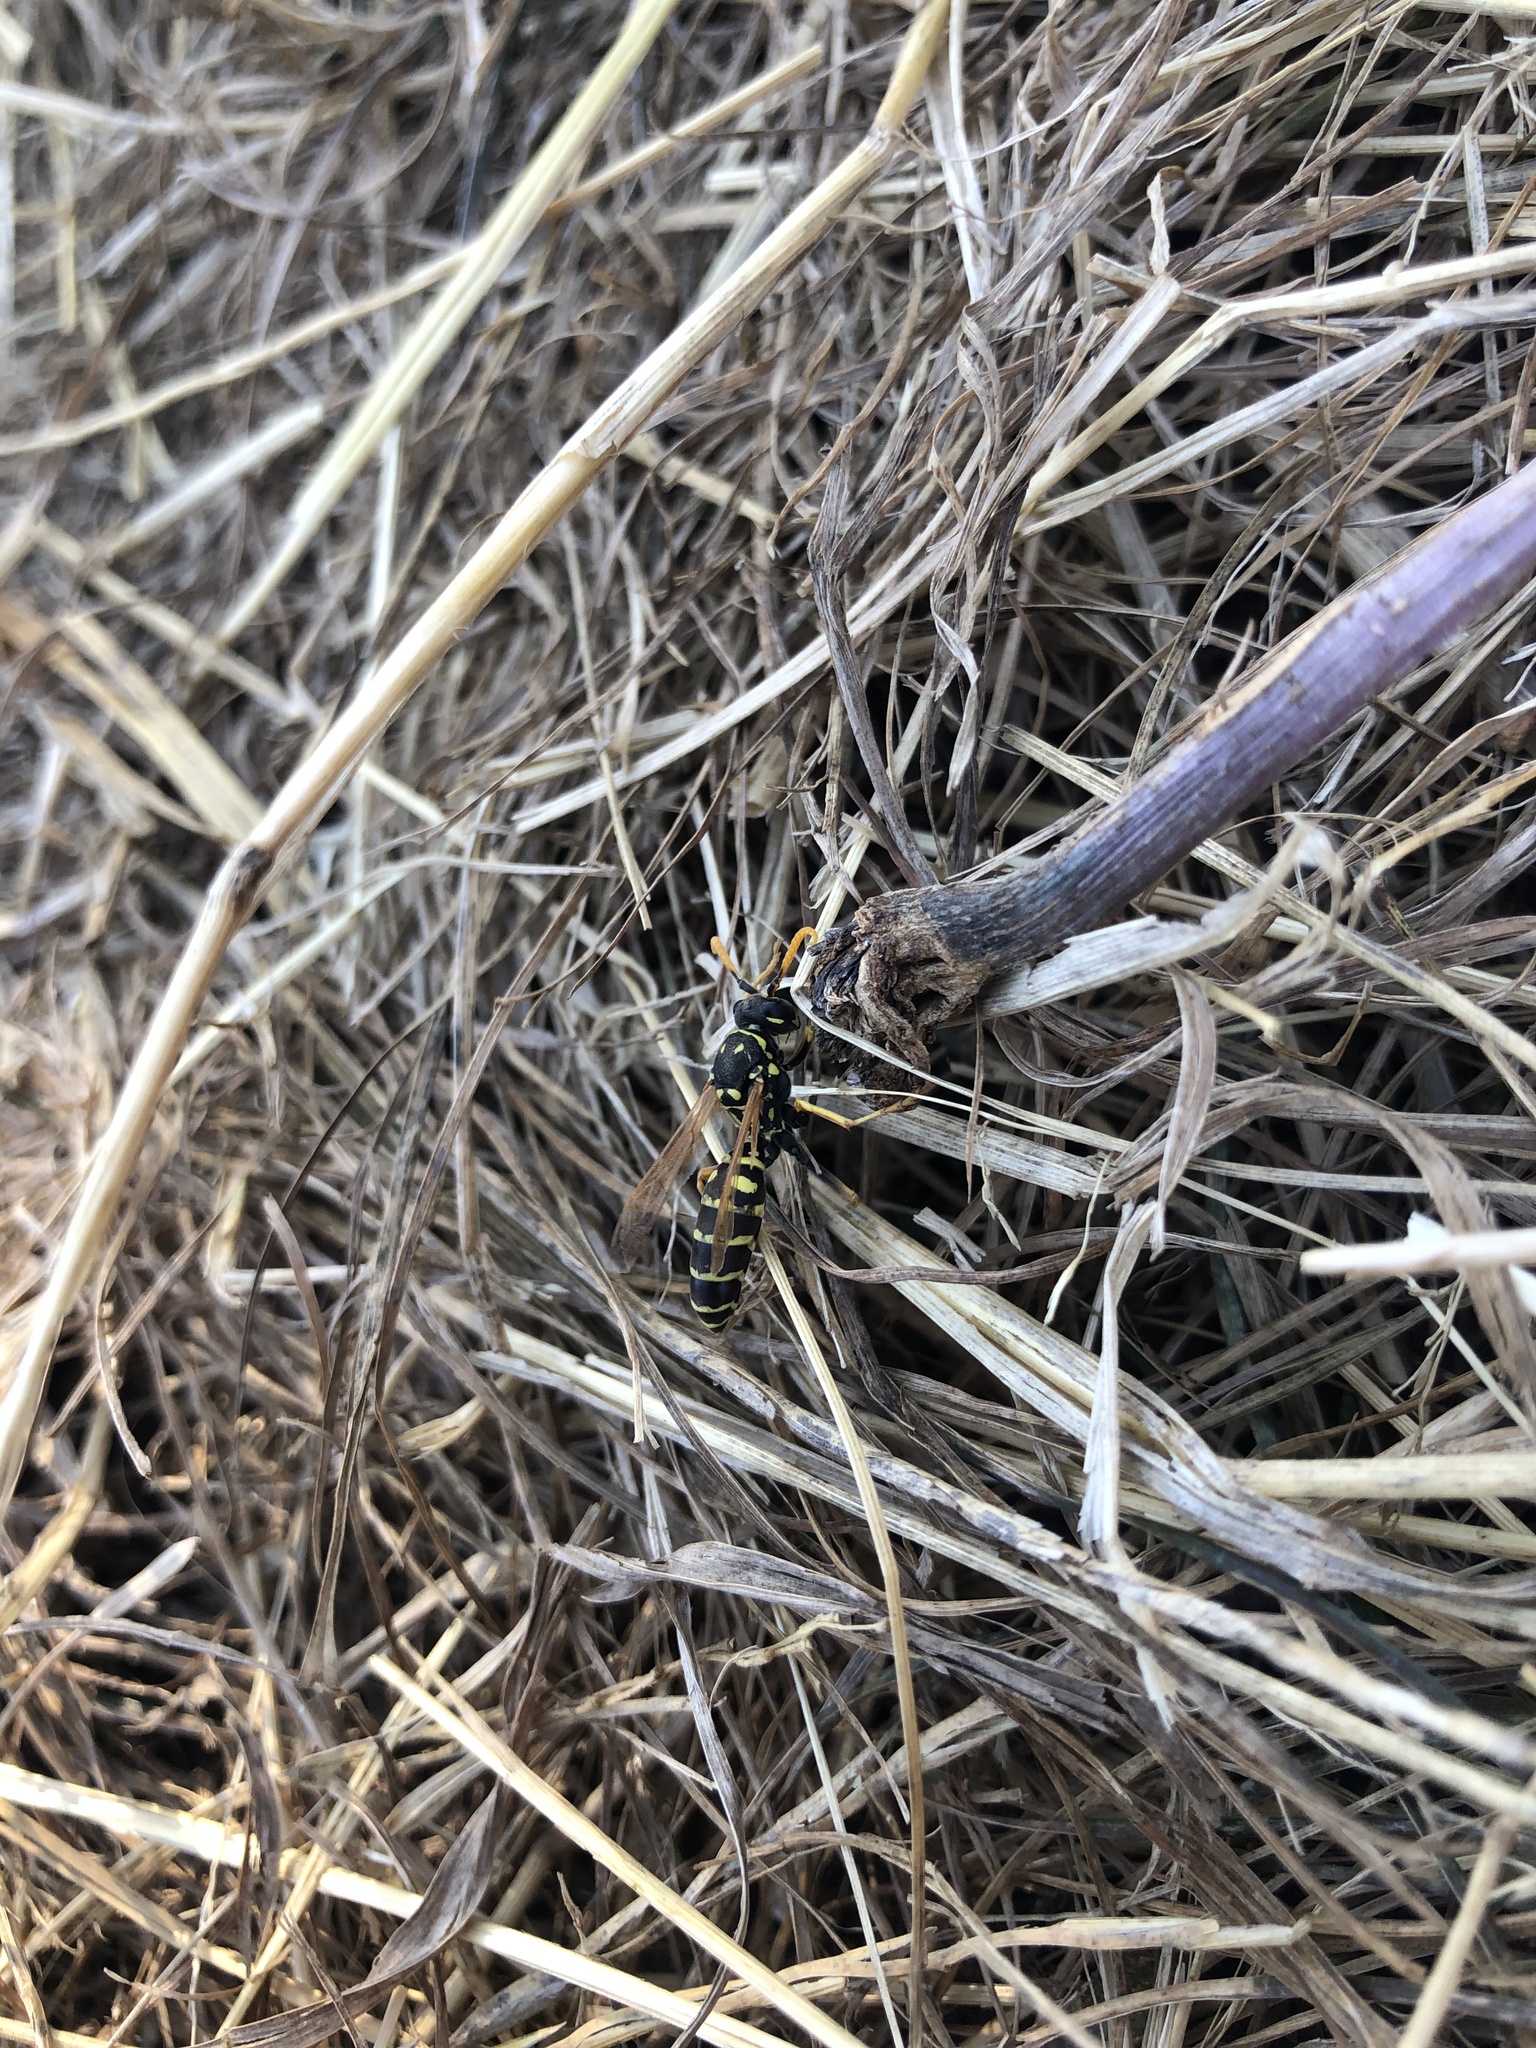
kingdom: Animalia
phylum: Arthropoda
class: Insecta
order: Hymenoptera
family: Eumenidae
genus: Polistes
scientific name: Polistes dominula
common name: Paper wasp
